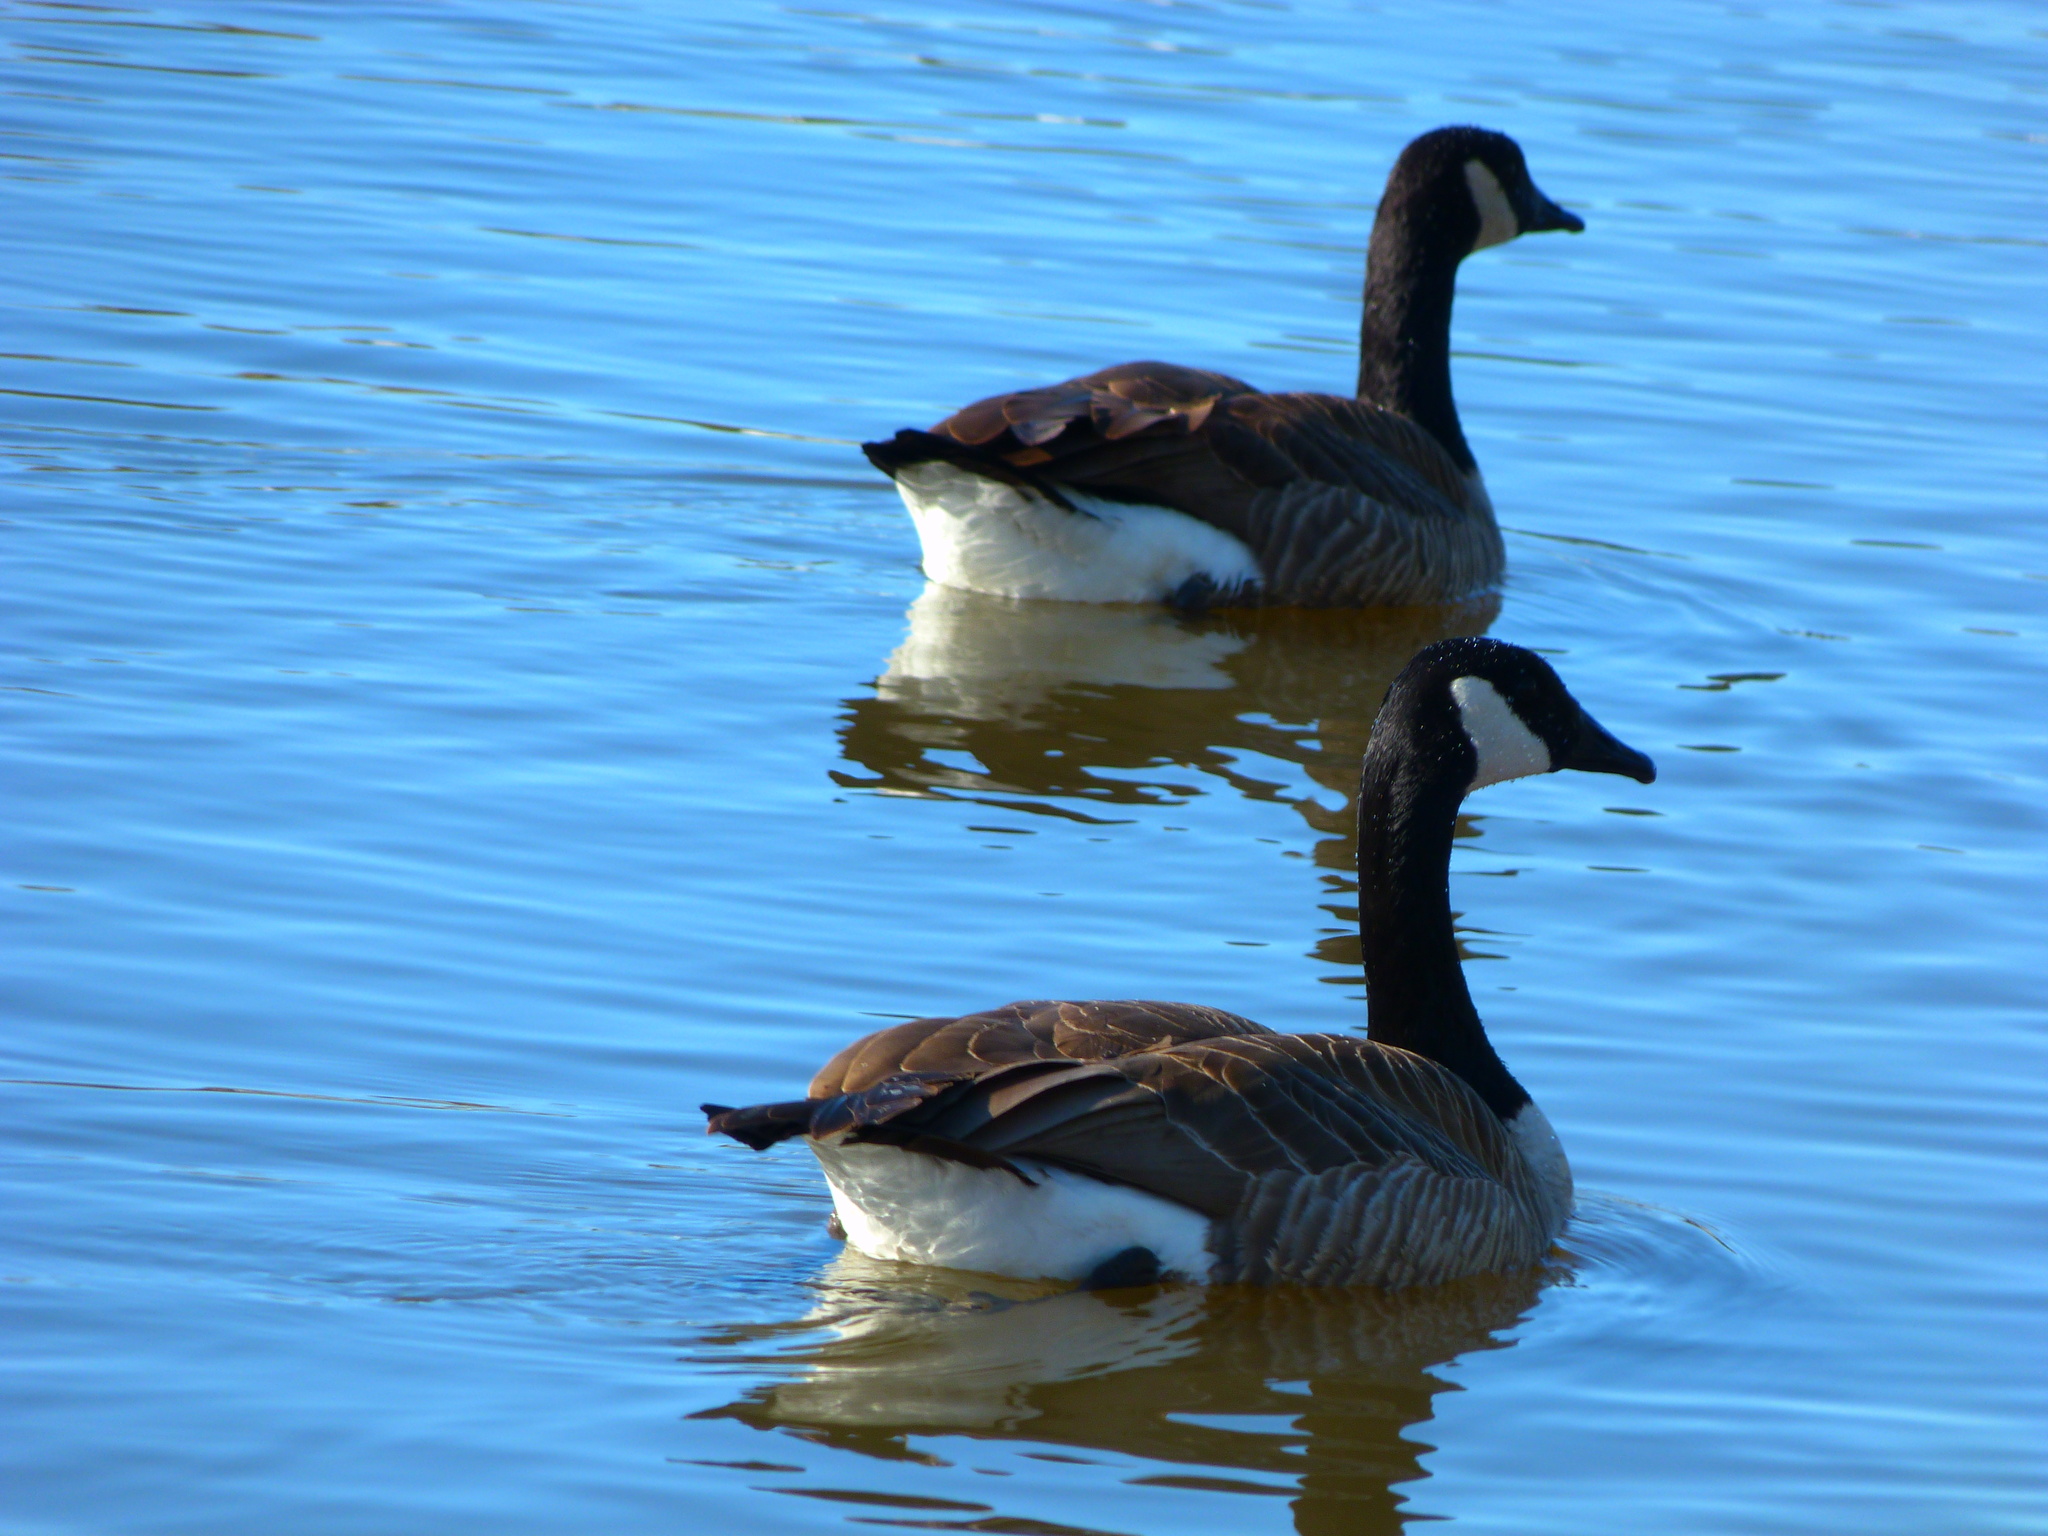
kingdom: Animalia
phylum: Chordata
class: Aves
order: Anseriformes
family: Anatidae
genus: Branta
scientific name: Branta canadensis
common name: Canada goose
